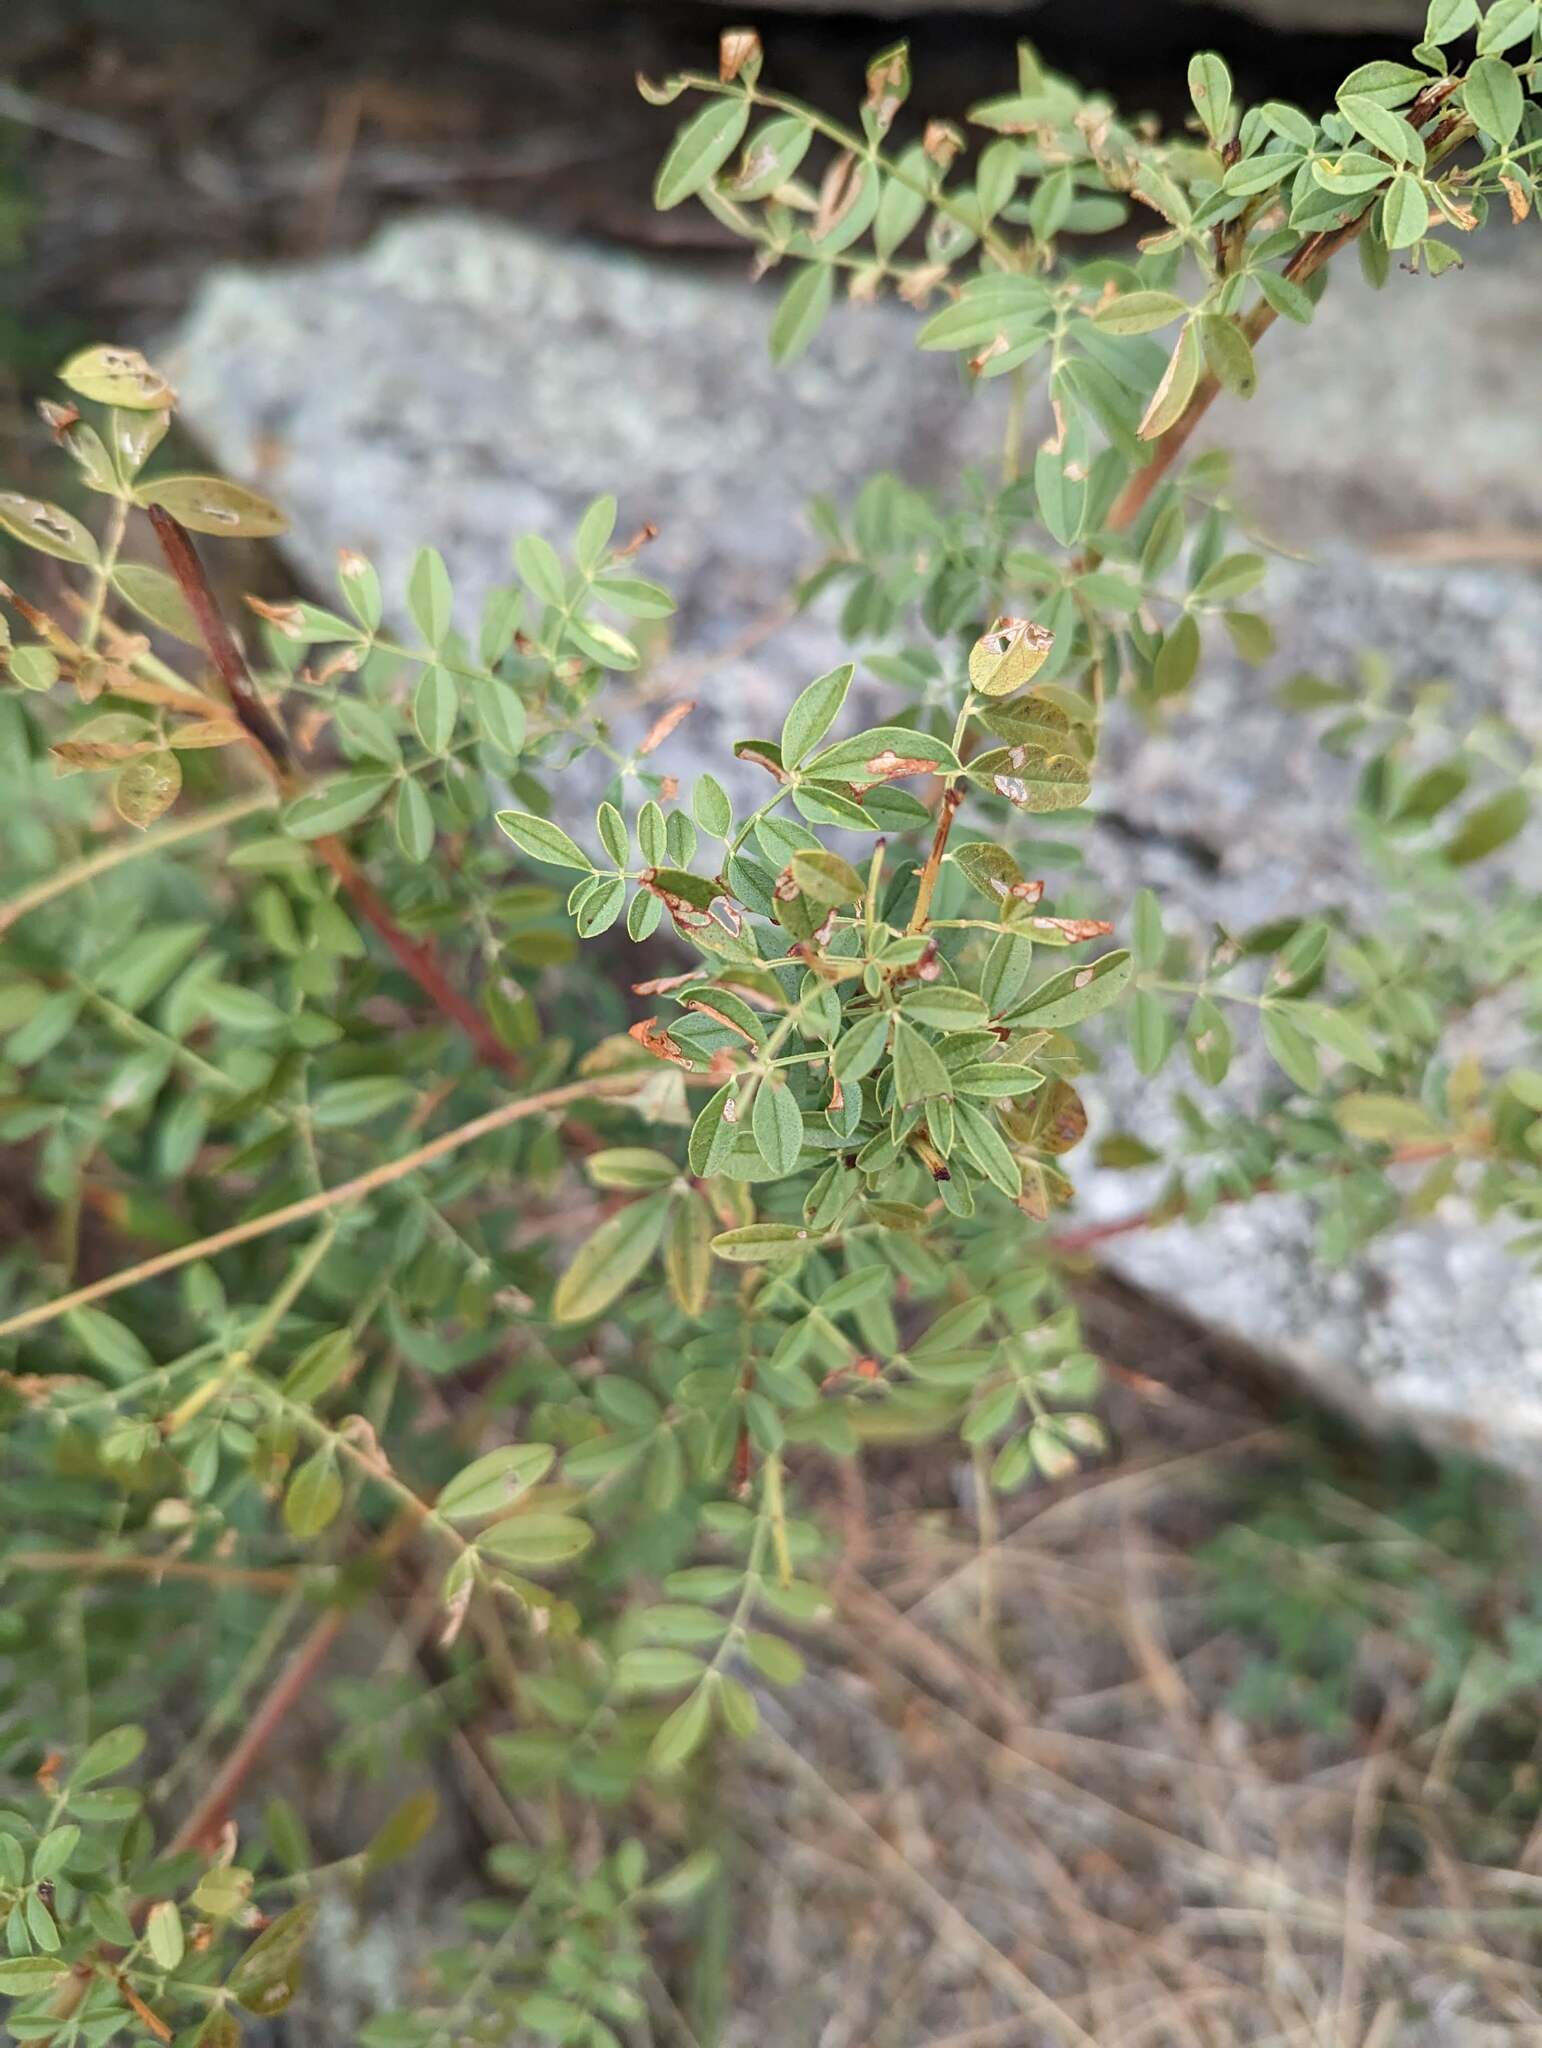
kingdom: Plantae
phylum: Tracheophyta
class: Magnoliopsida
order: Fabales
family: Fabaceae
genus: Glycyrrhiza
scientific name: Glycyrrhiza lepidota
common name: American liquorice
